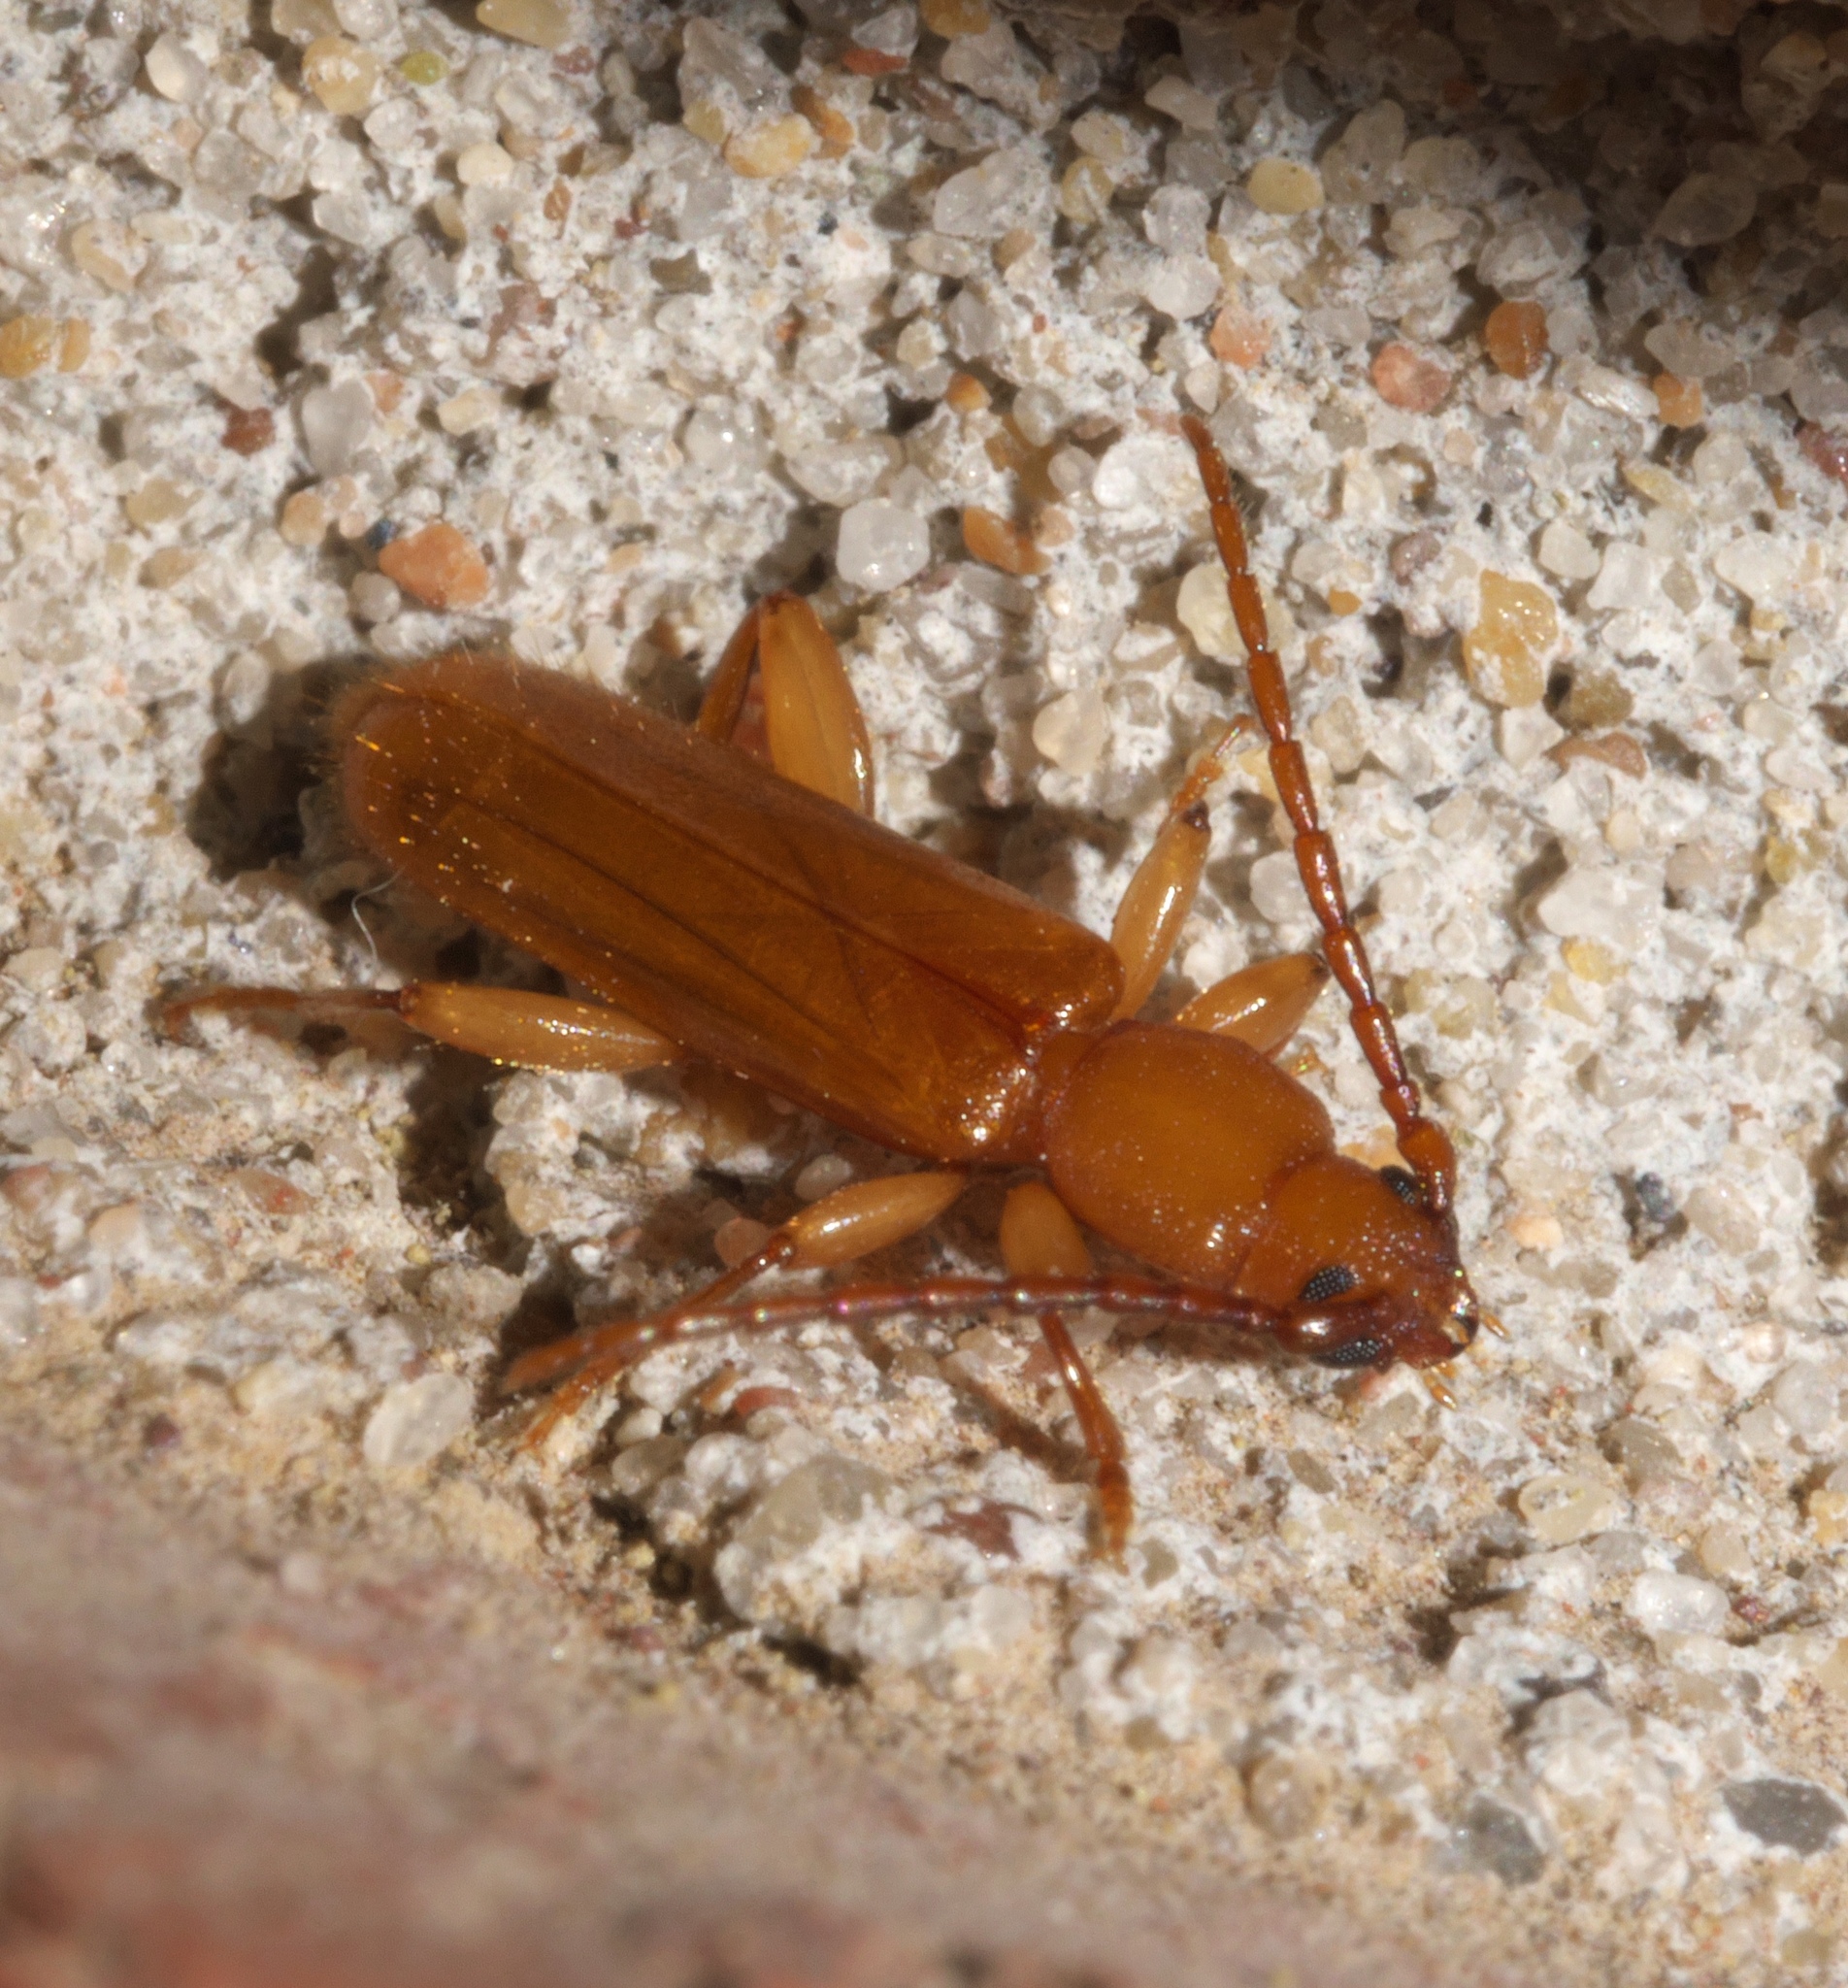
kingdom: Animalia
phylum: Arthropoda
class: Insecta
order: Coleoptera
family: Cerambycidae
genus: Smodicum
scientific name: Smodicum cucujiforme
